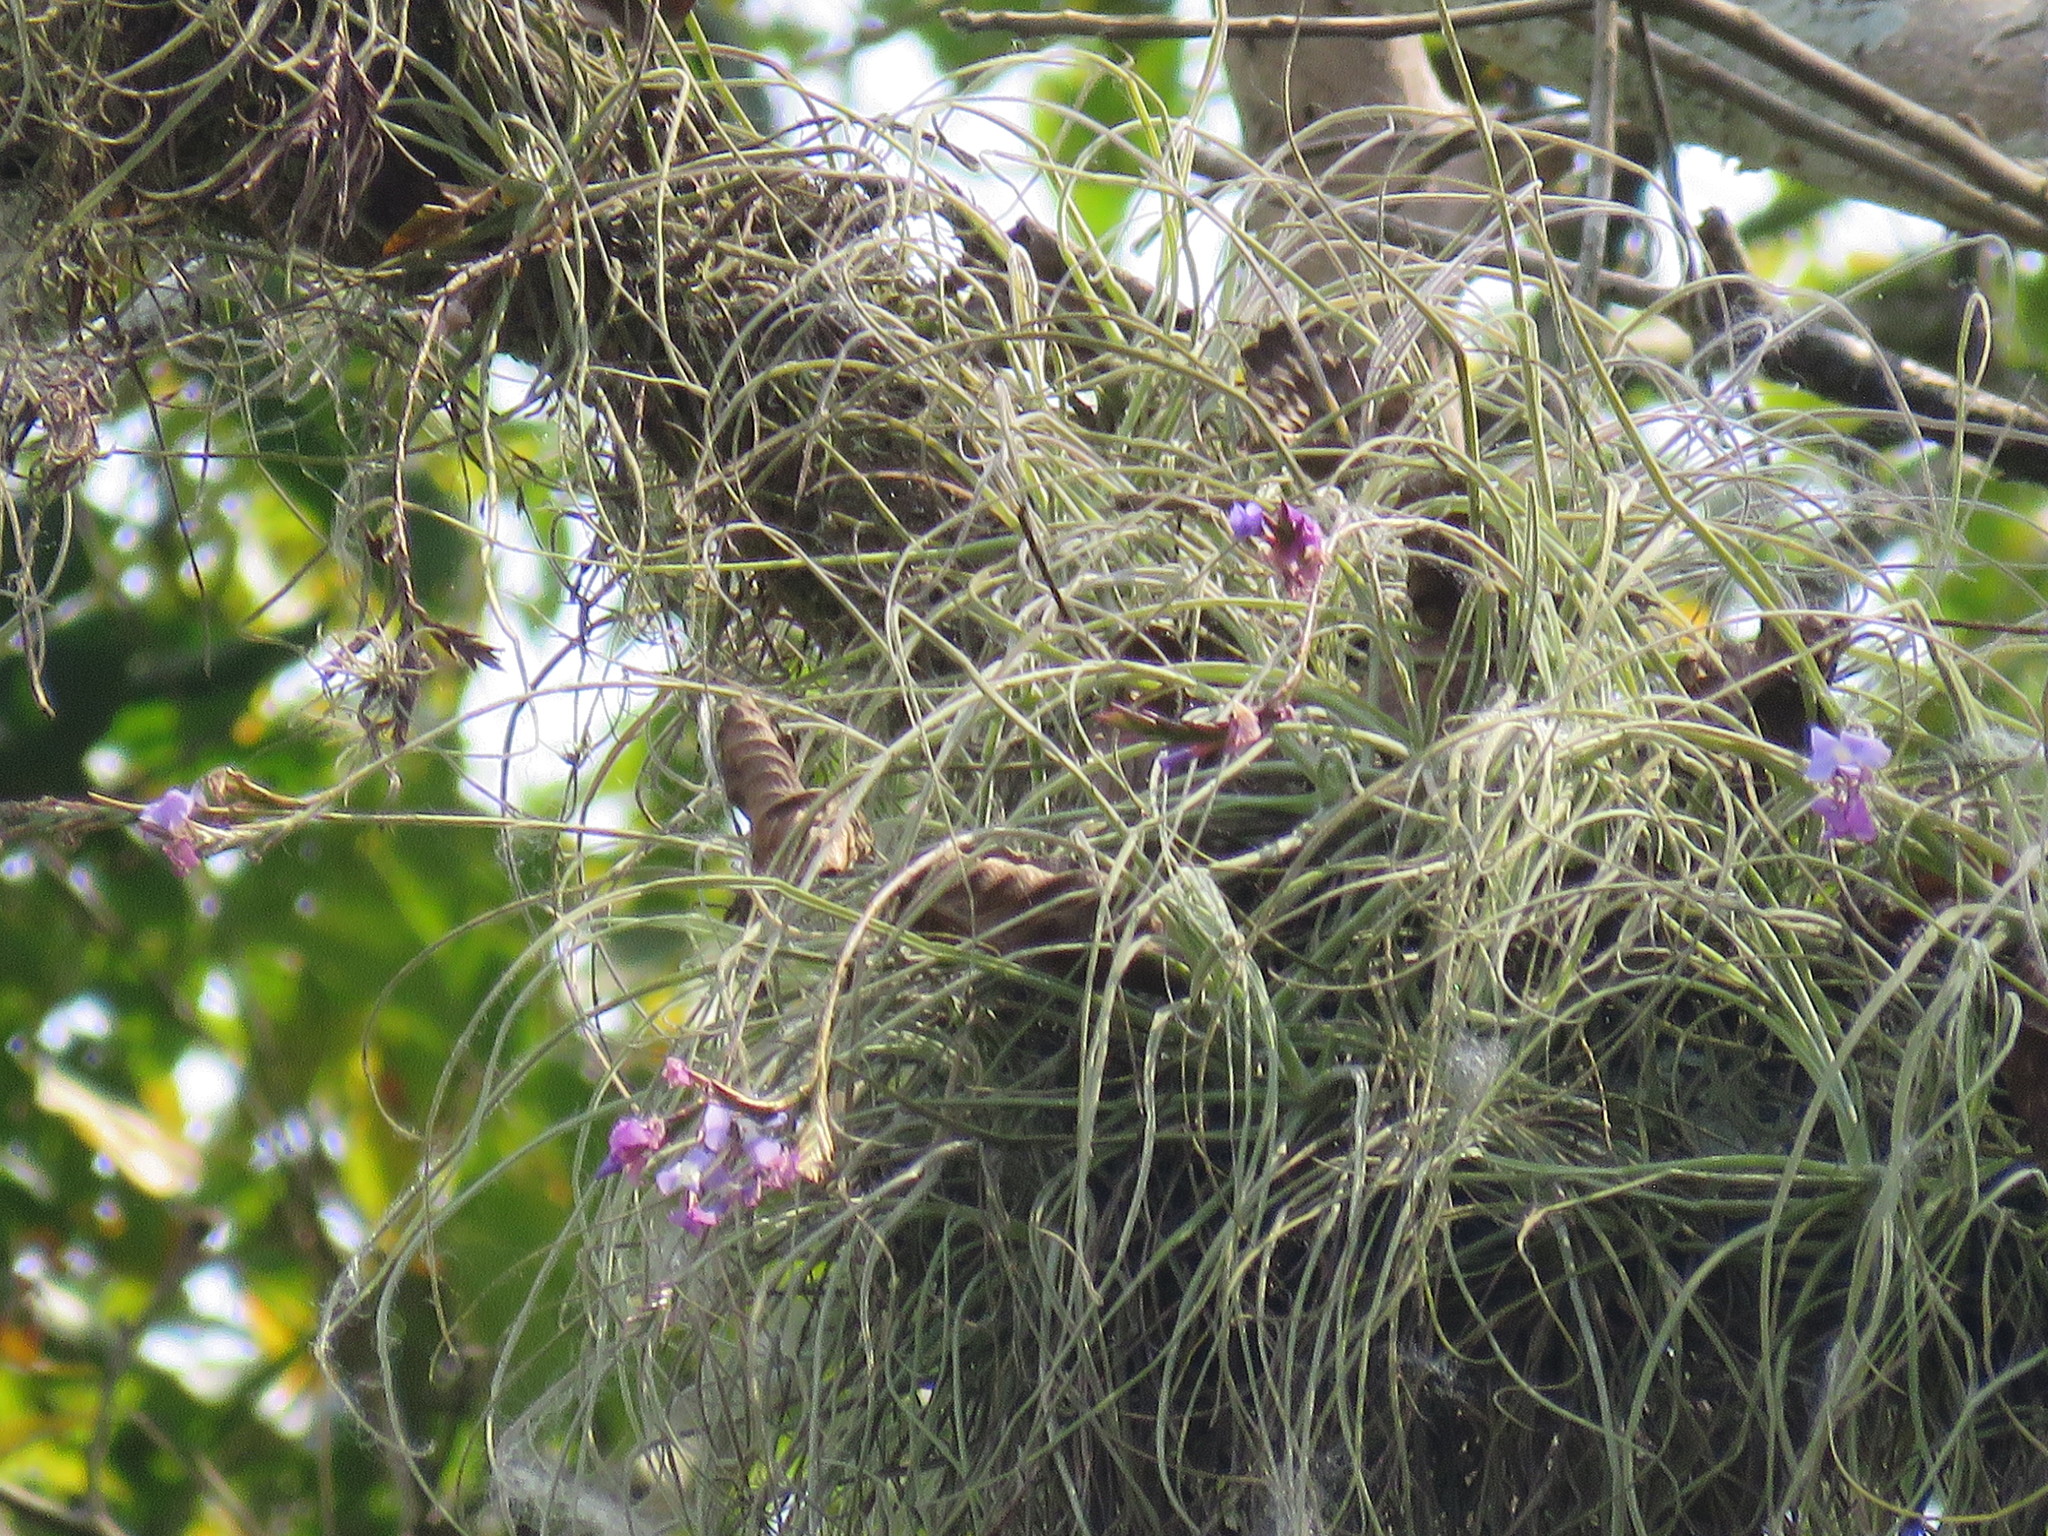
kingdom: Plantae
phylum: Tracheophyta
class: Liliopsida
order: Poales
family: Bromeliaceae
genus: Tillandsia
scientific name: Tillandsia streptocarpa
